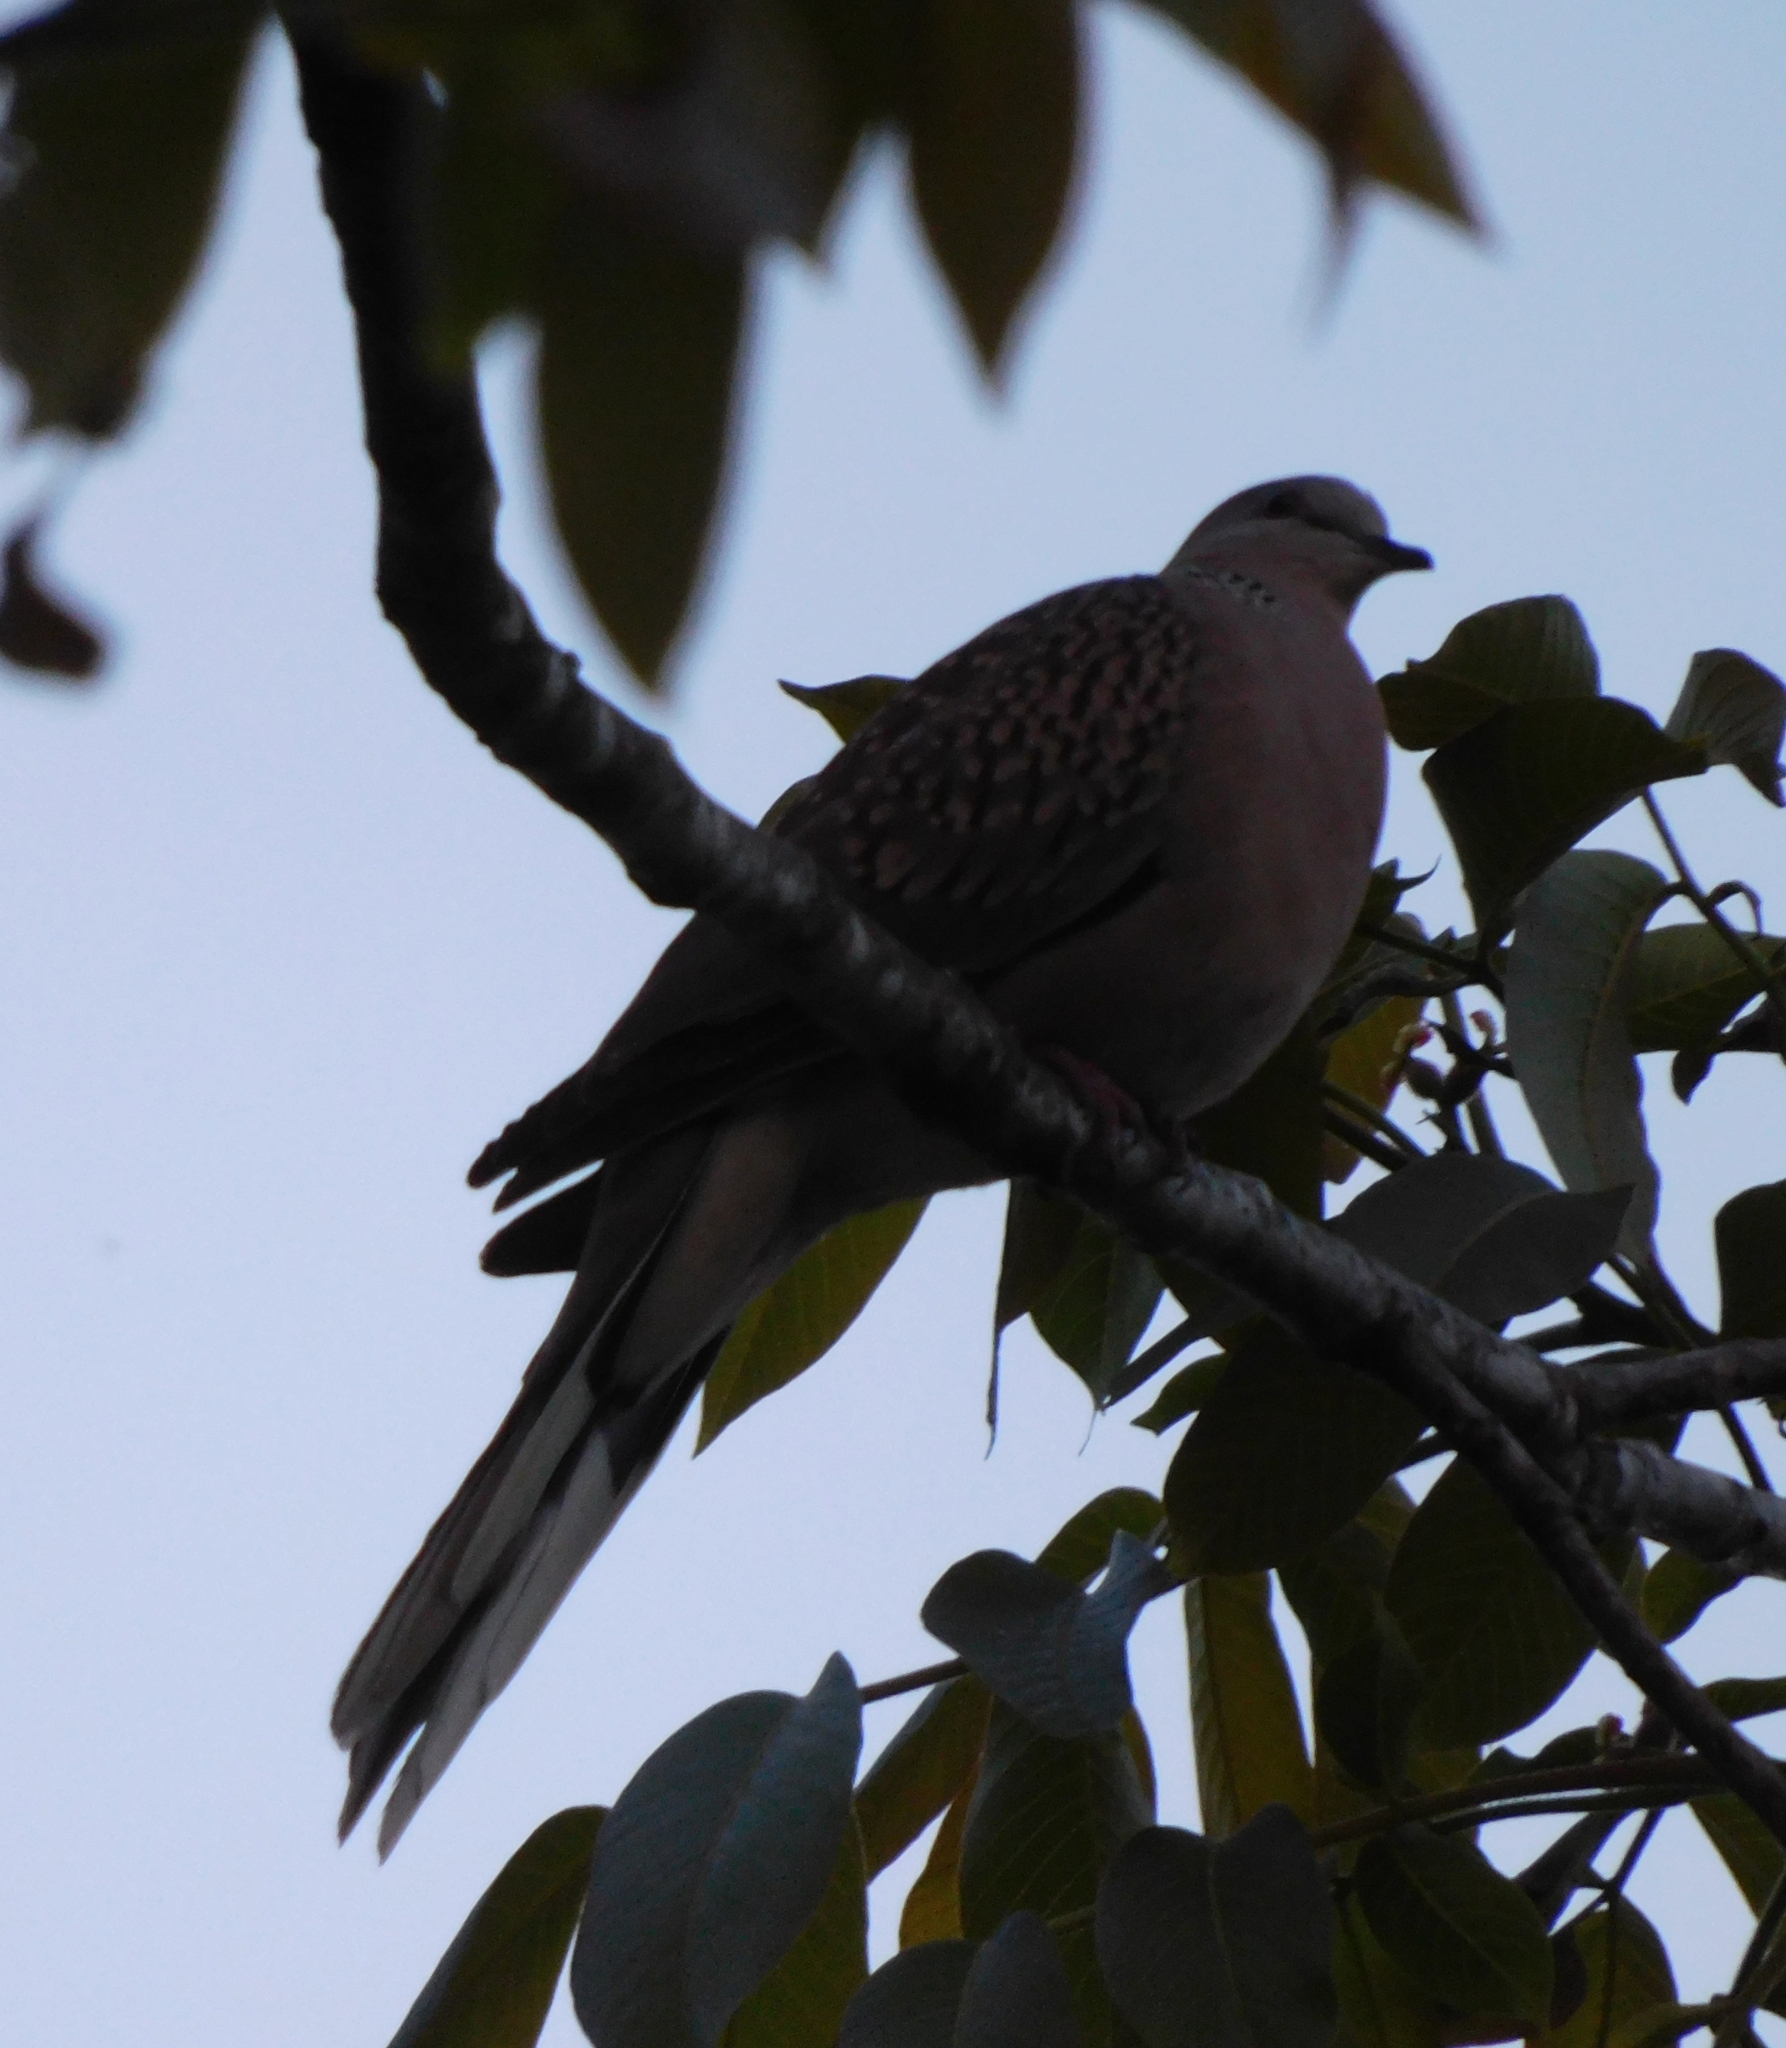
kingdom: Animalia
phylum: Chordata
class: Aves
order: Columbiformes
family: Columbidae
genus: Spilopelia
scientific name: Spilopelia chinensis
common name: Spotted dove
